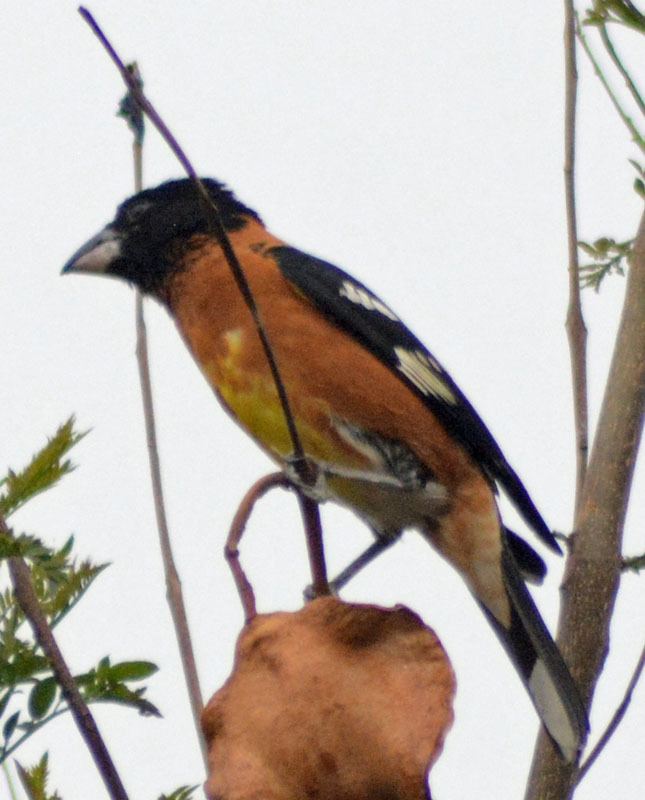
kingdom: Animalia
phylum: Chordata
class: Aves
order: Passeriformes
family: Cardinalidae
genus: Pheucticus
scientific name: Pheucticus melanocephalus
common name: Black-headed grosbeak
